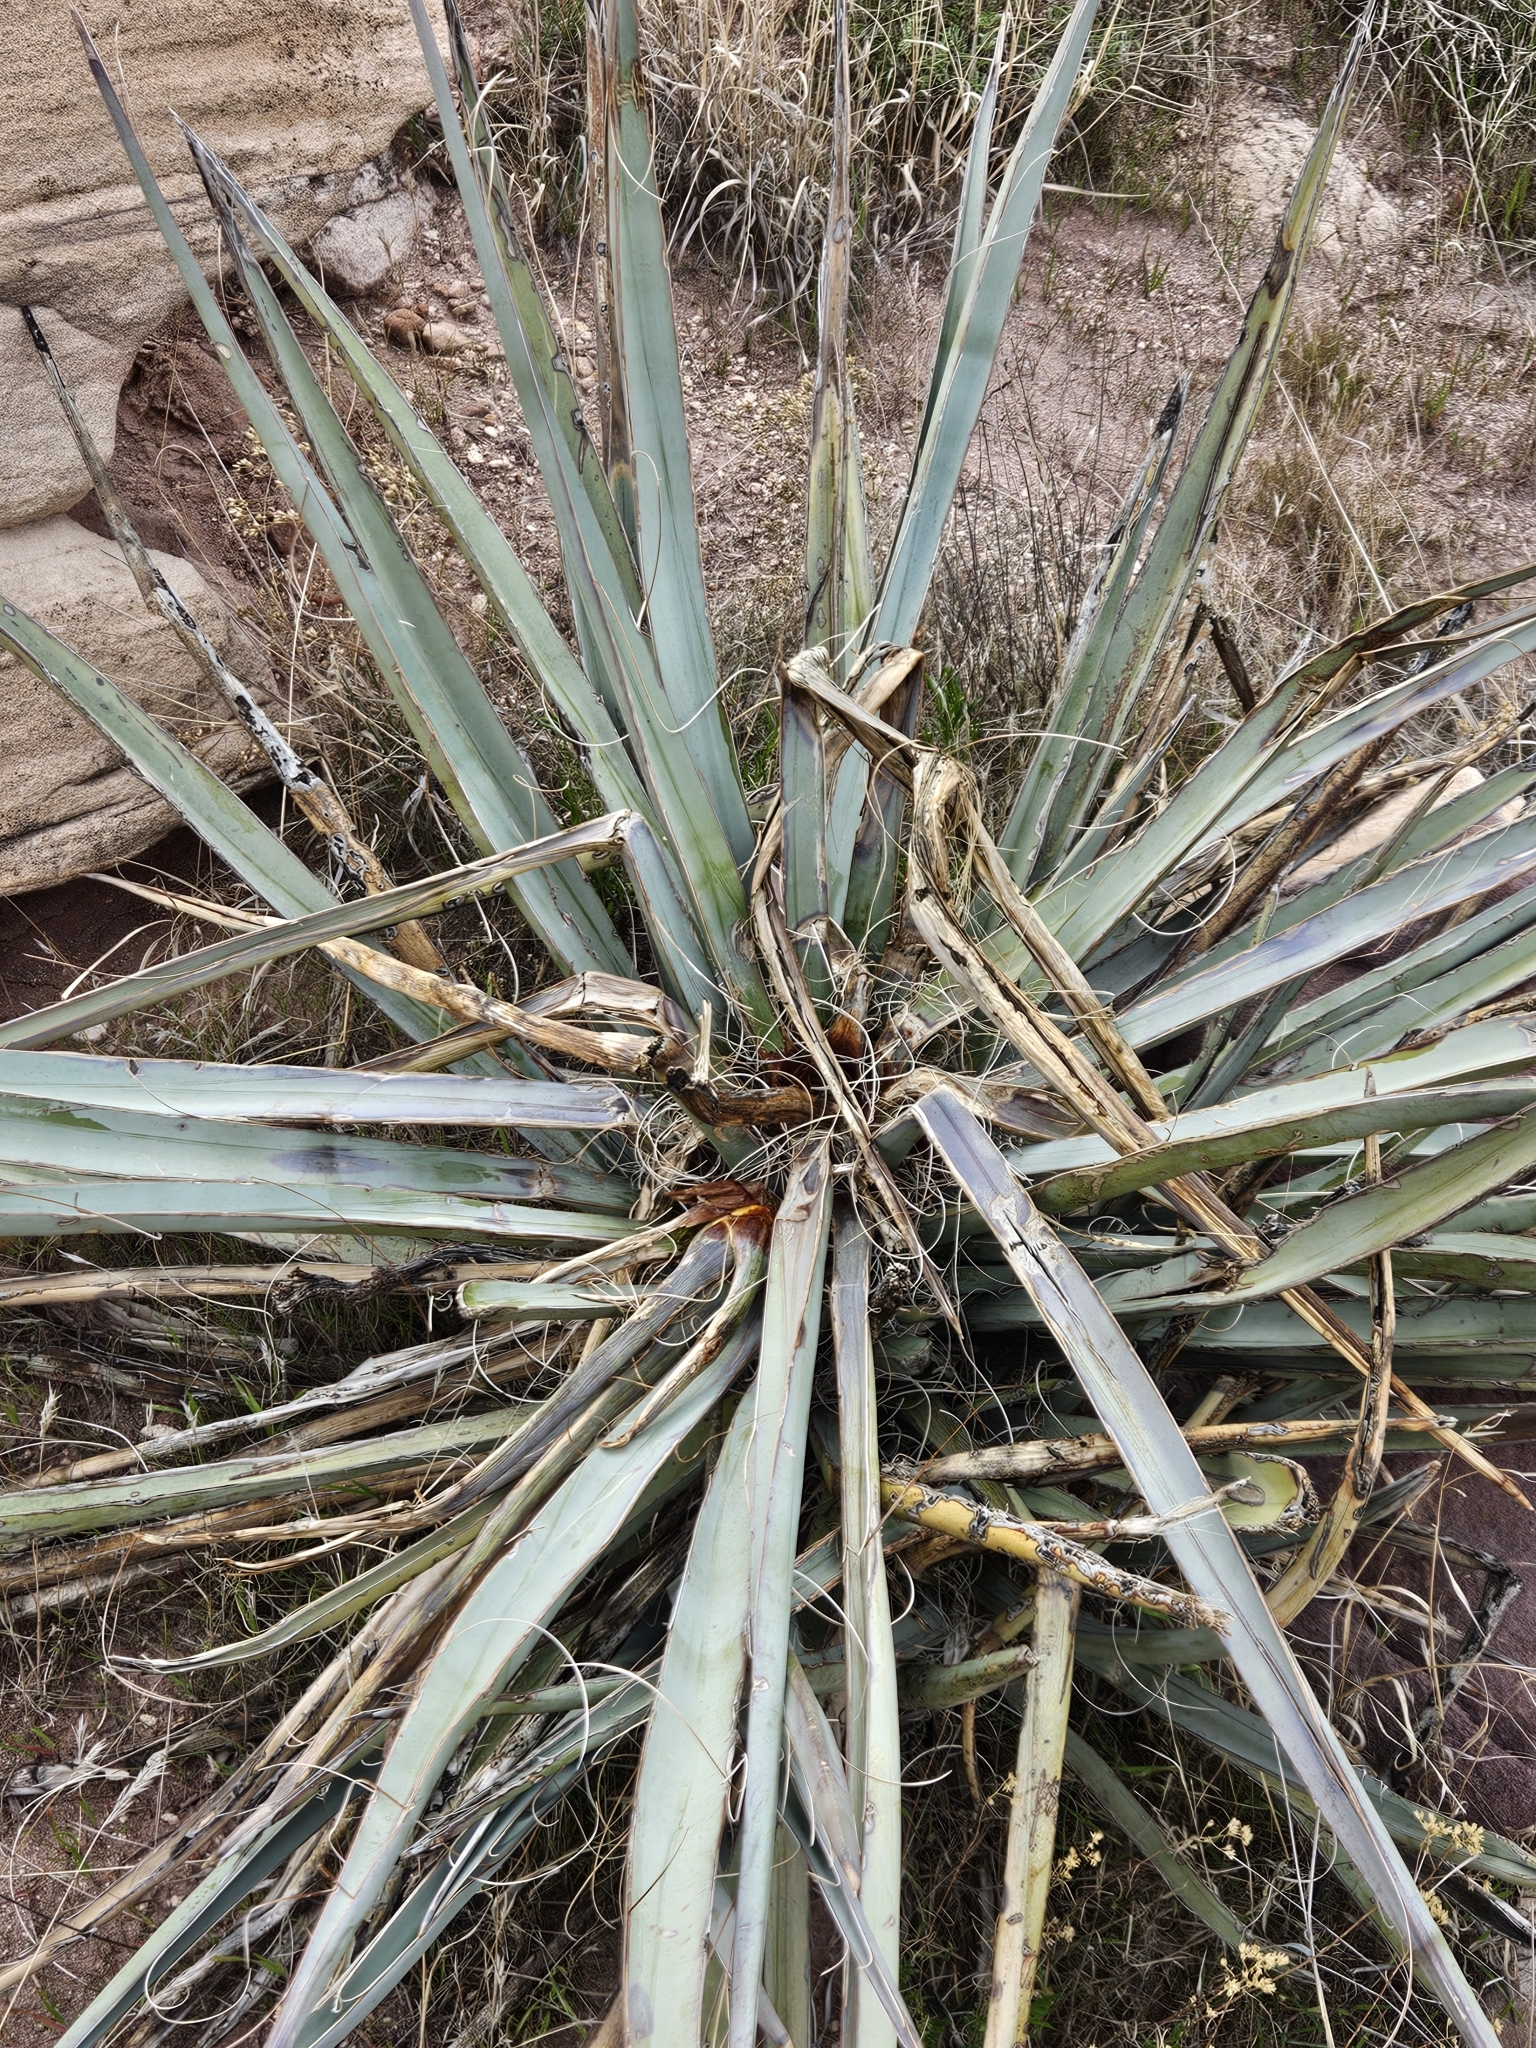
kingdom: Plantae
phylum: Tracheophyta
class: Liliopsida
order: Asparagales
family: Asparagaceae
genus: Yucca
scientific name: Yucca baccata
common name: Banana yucca
